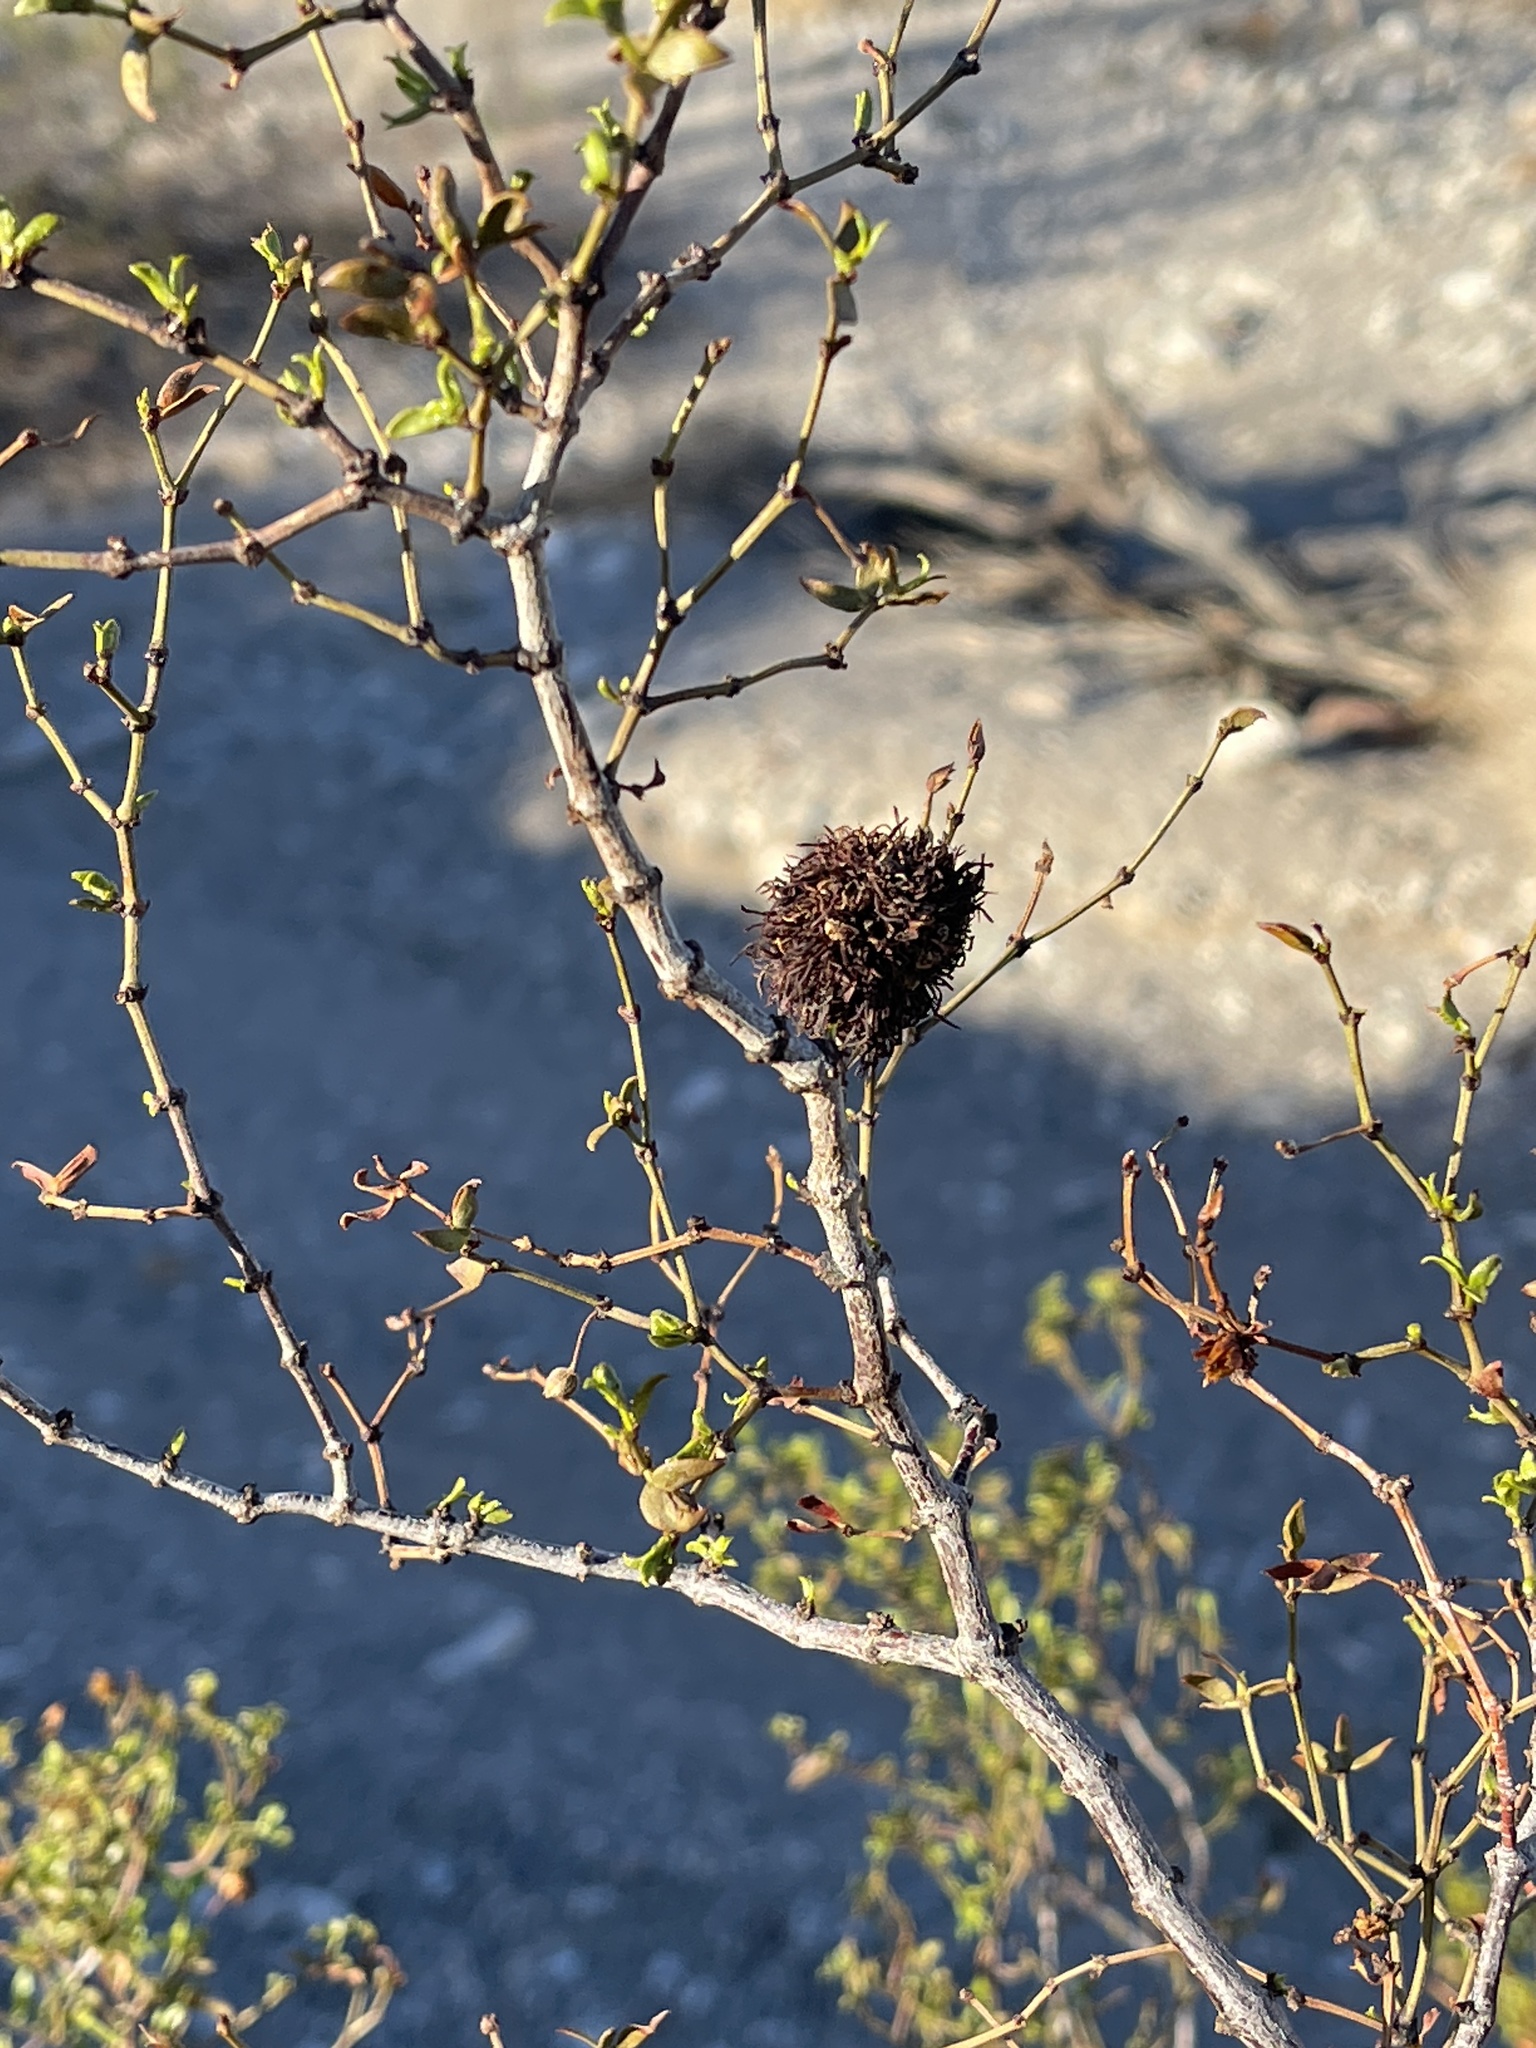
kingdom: Animalia
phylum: Arthropoda
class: Insecta
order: Diptera
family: Cecidomyiidae
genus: Asphondylia
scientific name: Asphondylia auripila
